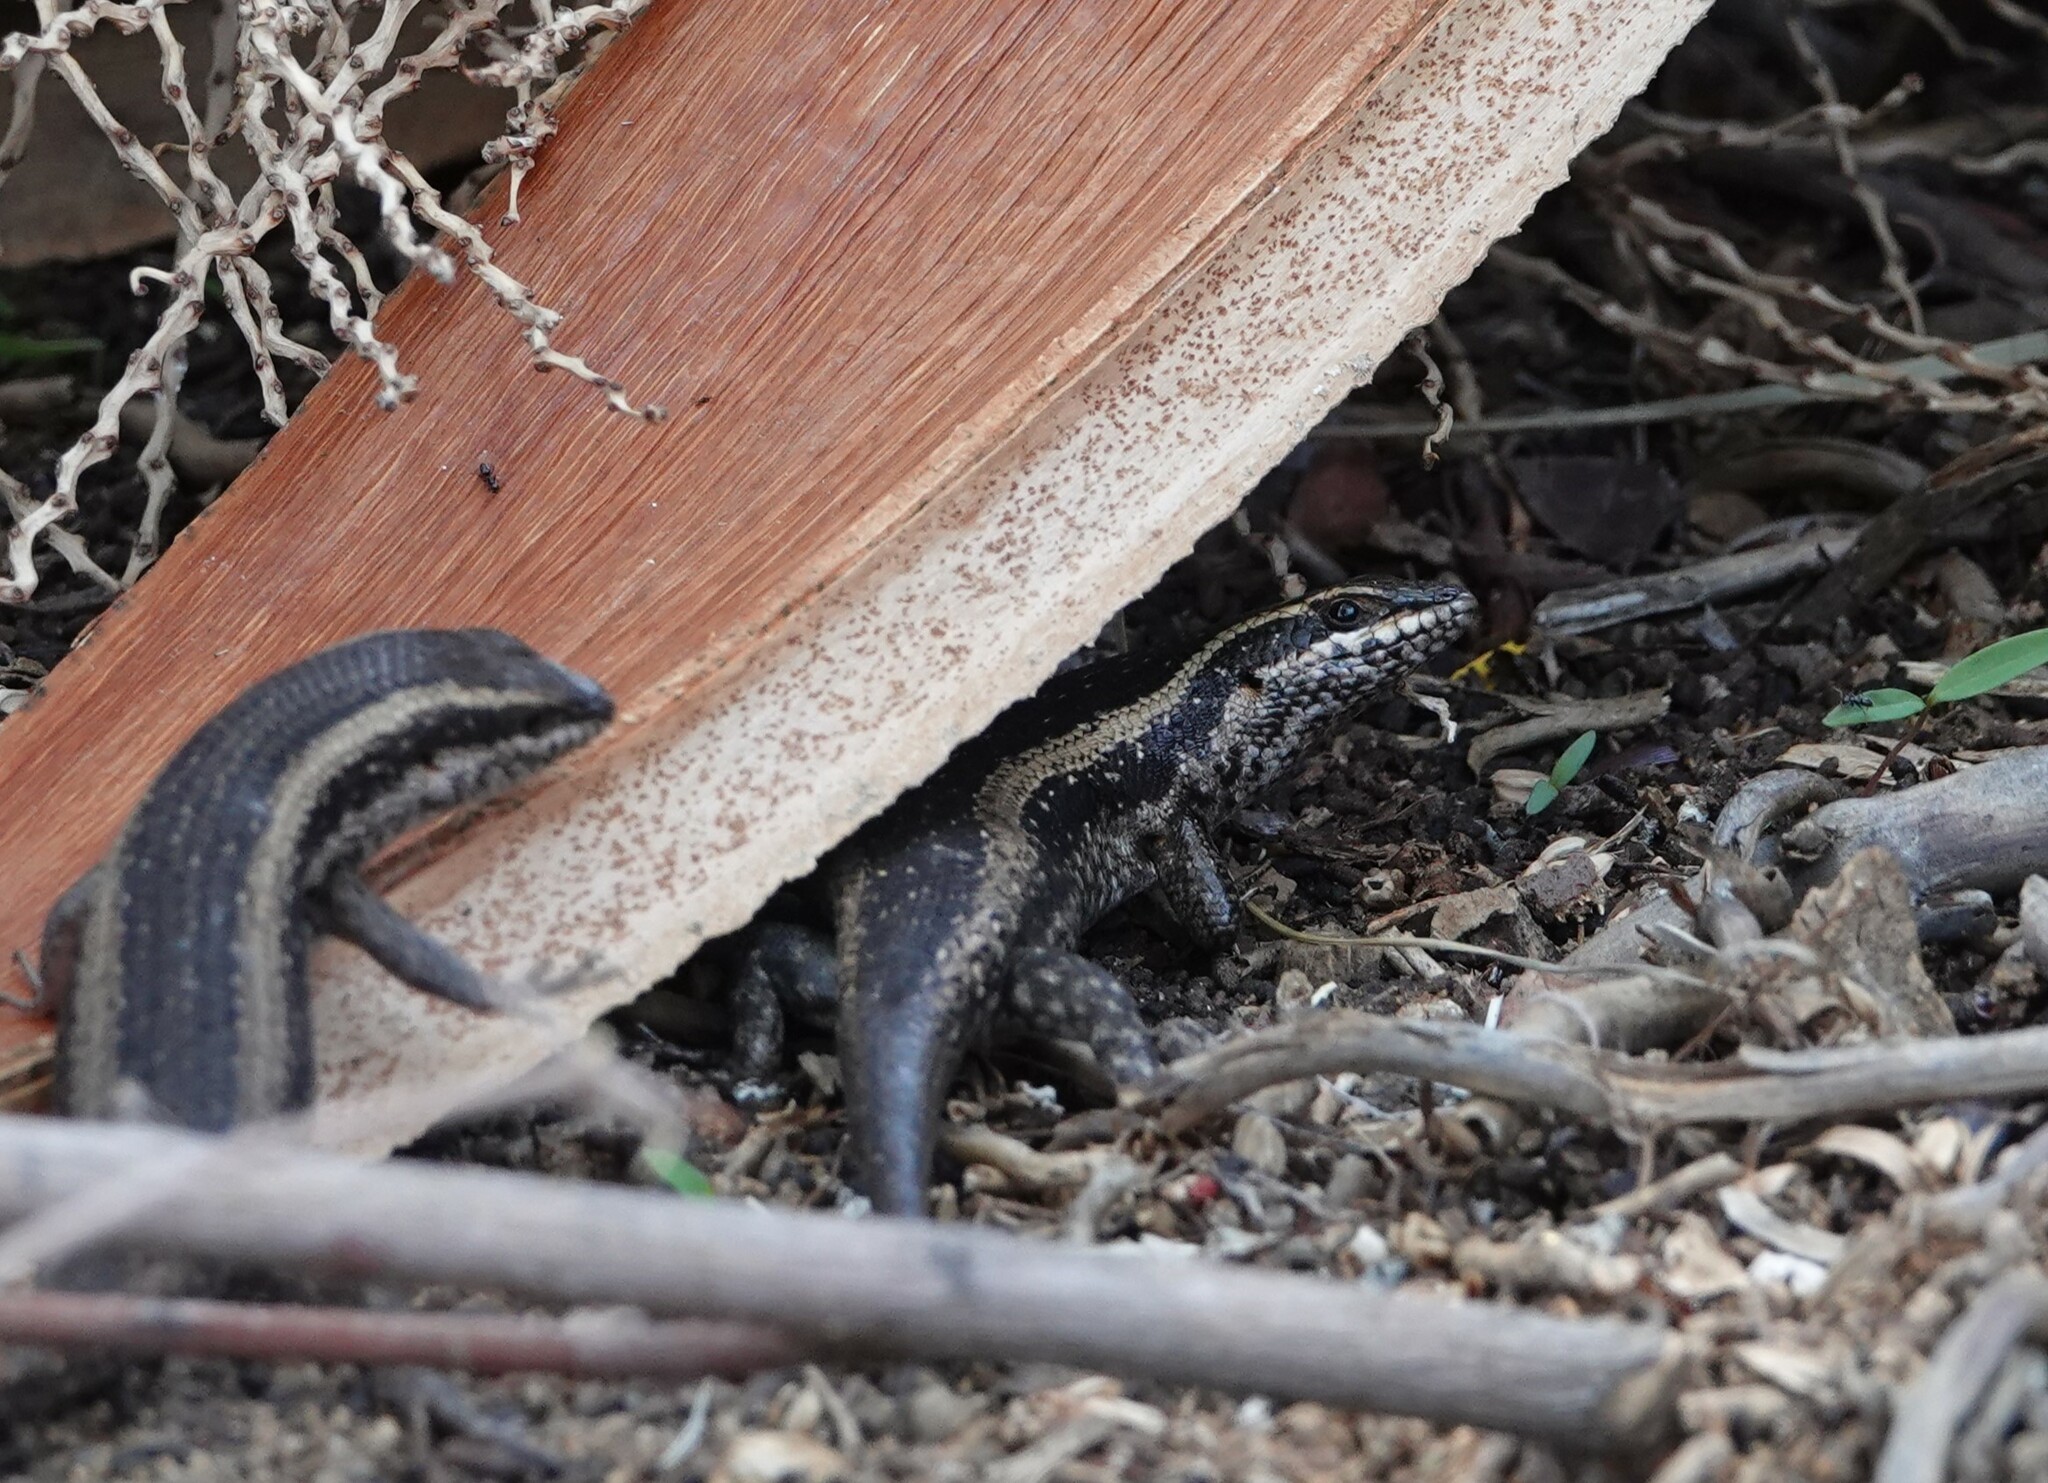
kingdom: Animalia
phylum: Chordata
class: Squamata
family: Scincidae
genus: Trachylepis
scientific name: Trachylepis spilogaster
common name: Kalahari tree skink
